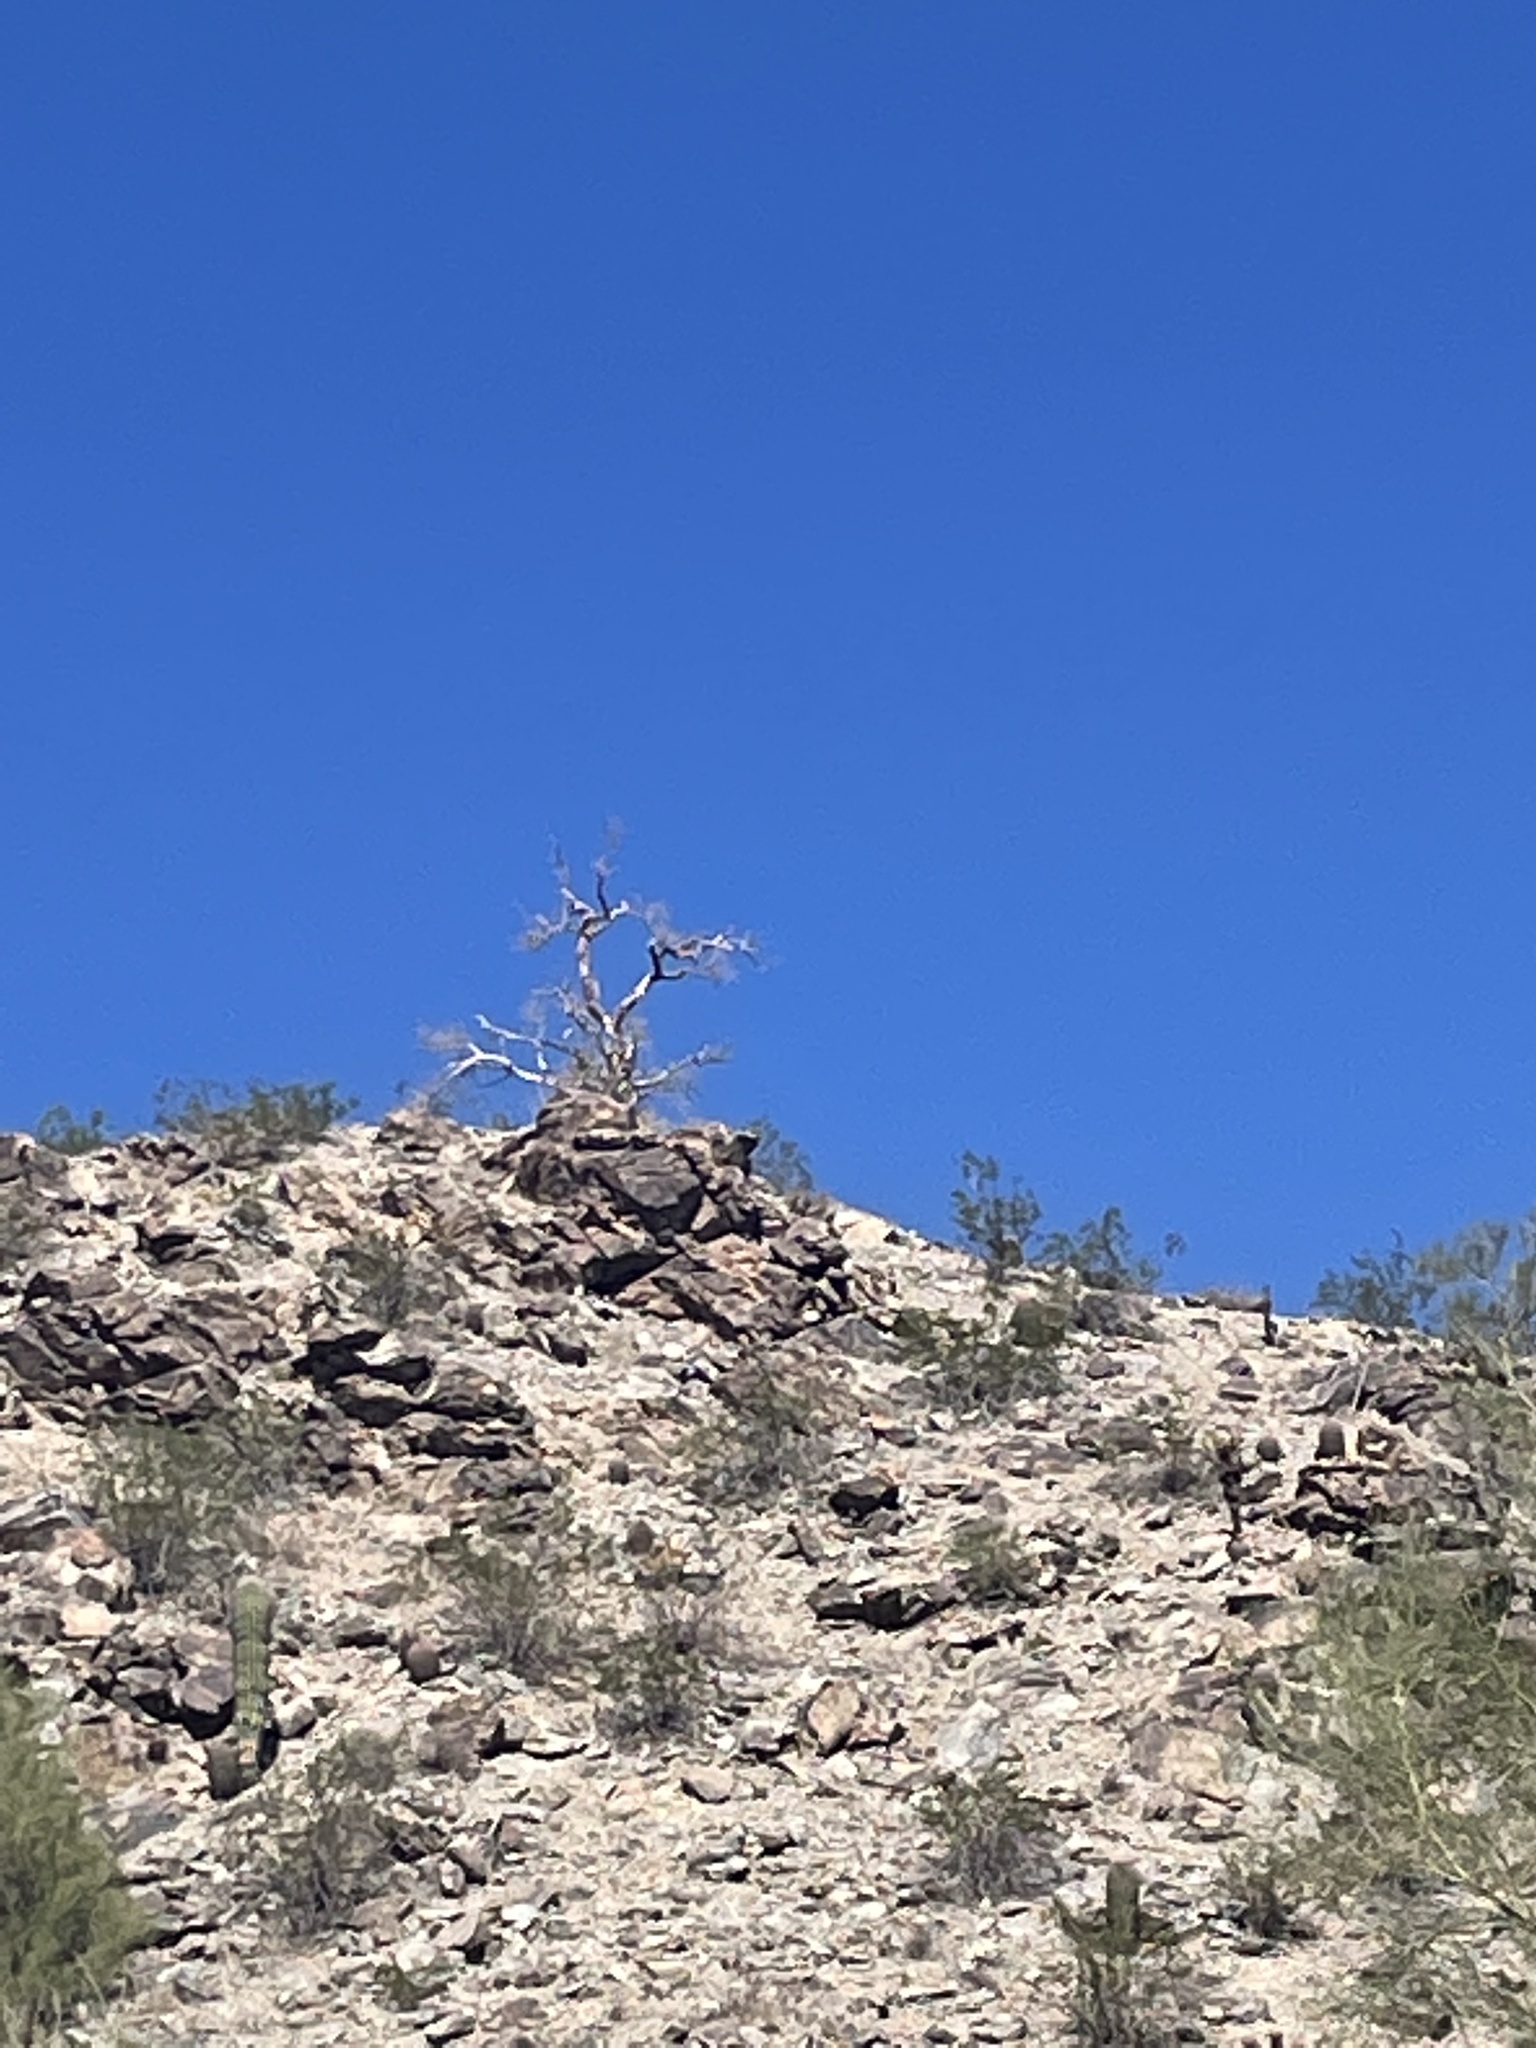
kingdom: Plantae
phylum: Tracheophyta
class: Magnoliopsida
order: Sapindales
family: Burseraceae
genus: Bursera
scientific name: Bursera microphylla
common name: Elephant tree
